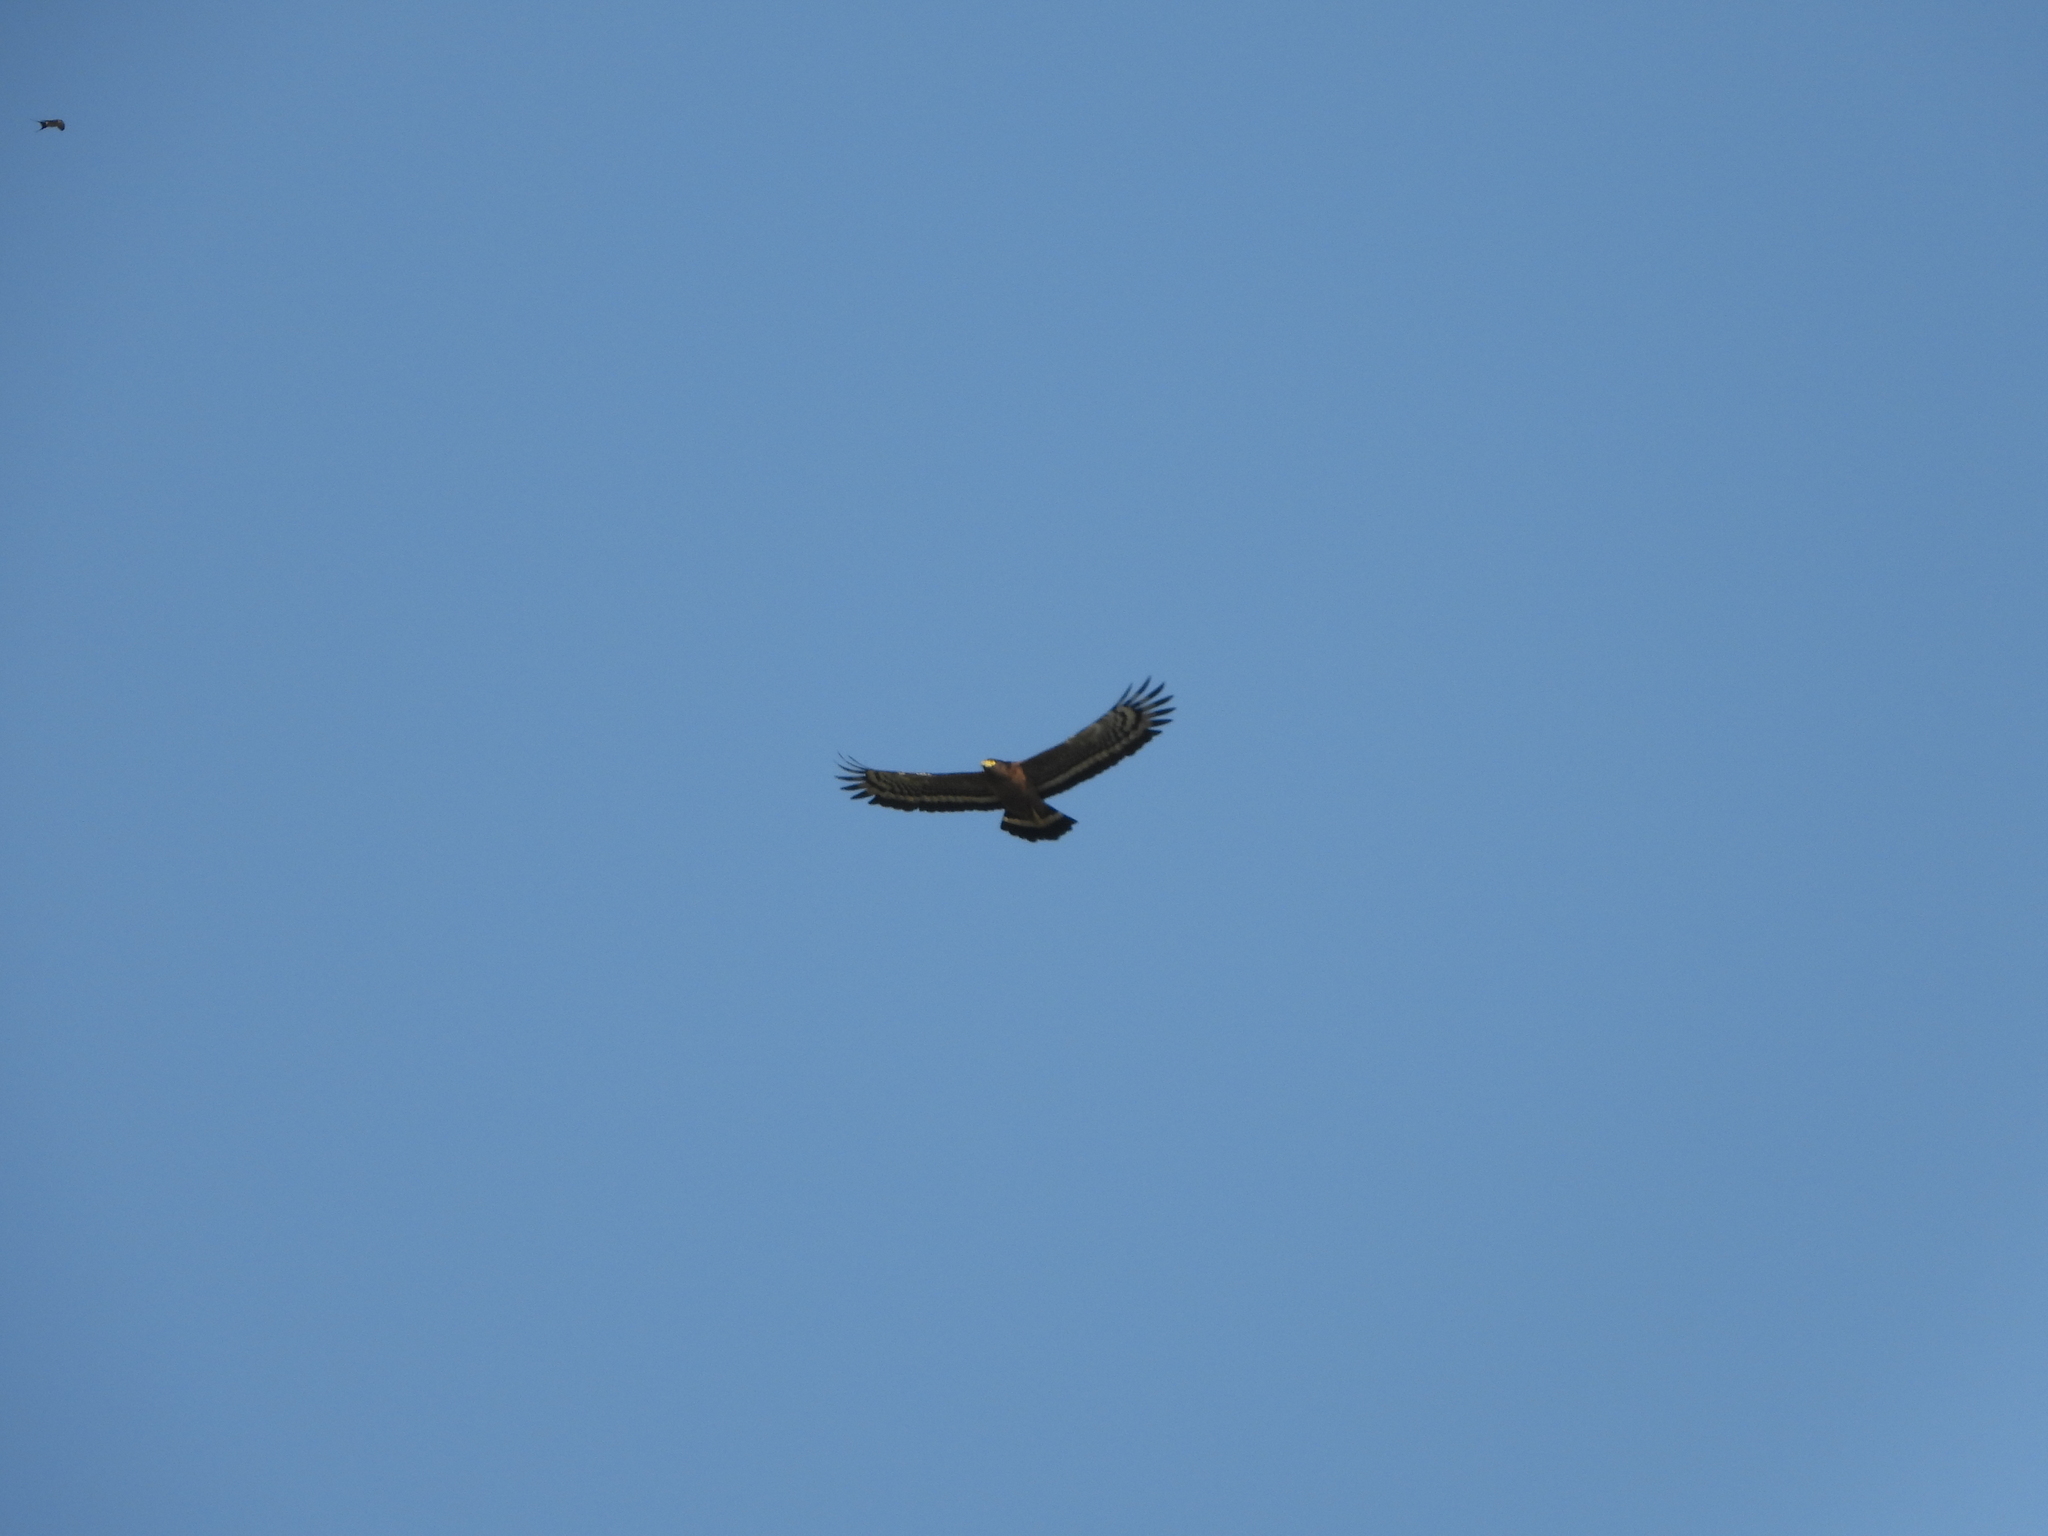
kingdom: Animalia
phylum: Chordata
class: Aves
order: Accipitriformes
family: Accipitridae
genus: Spilornis
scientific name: Spilornis cheela
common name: Crested serpent eagle
